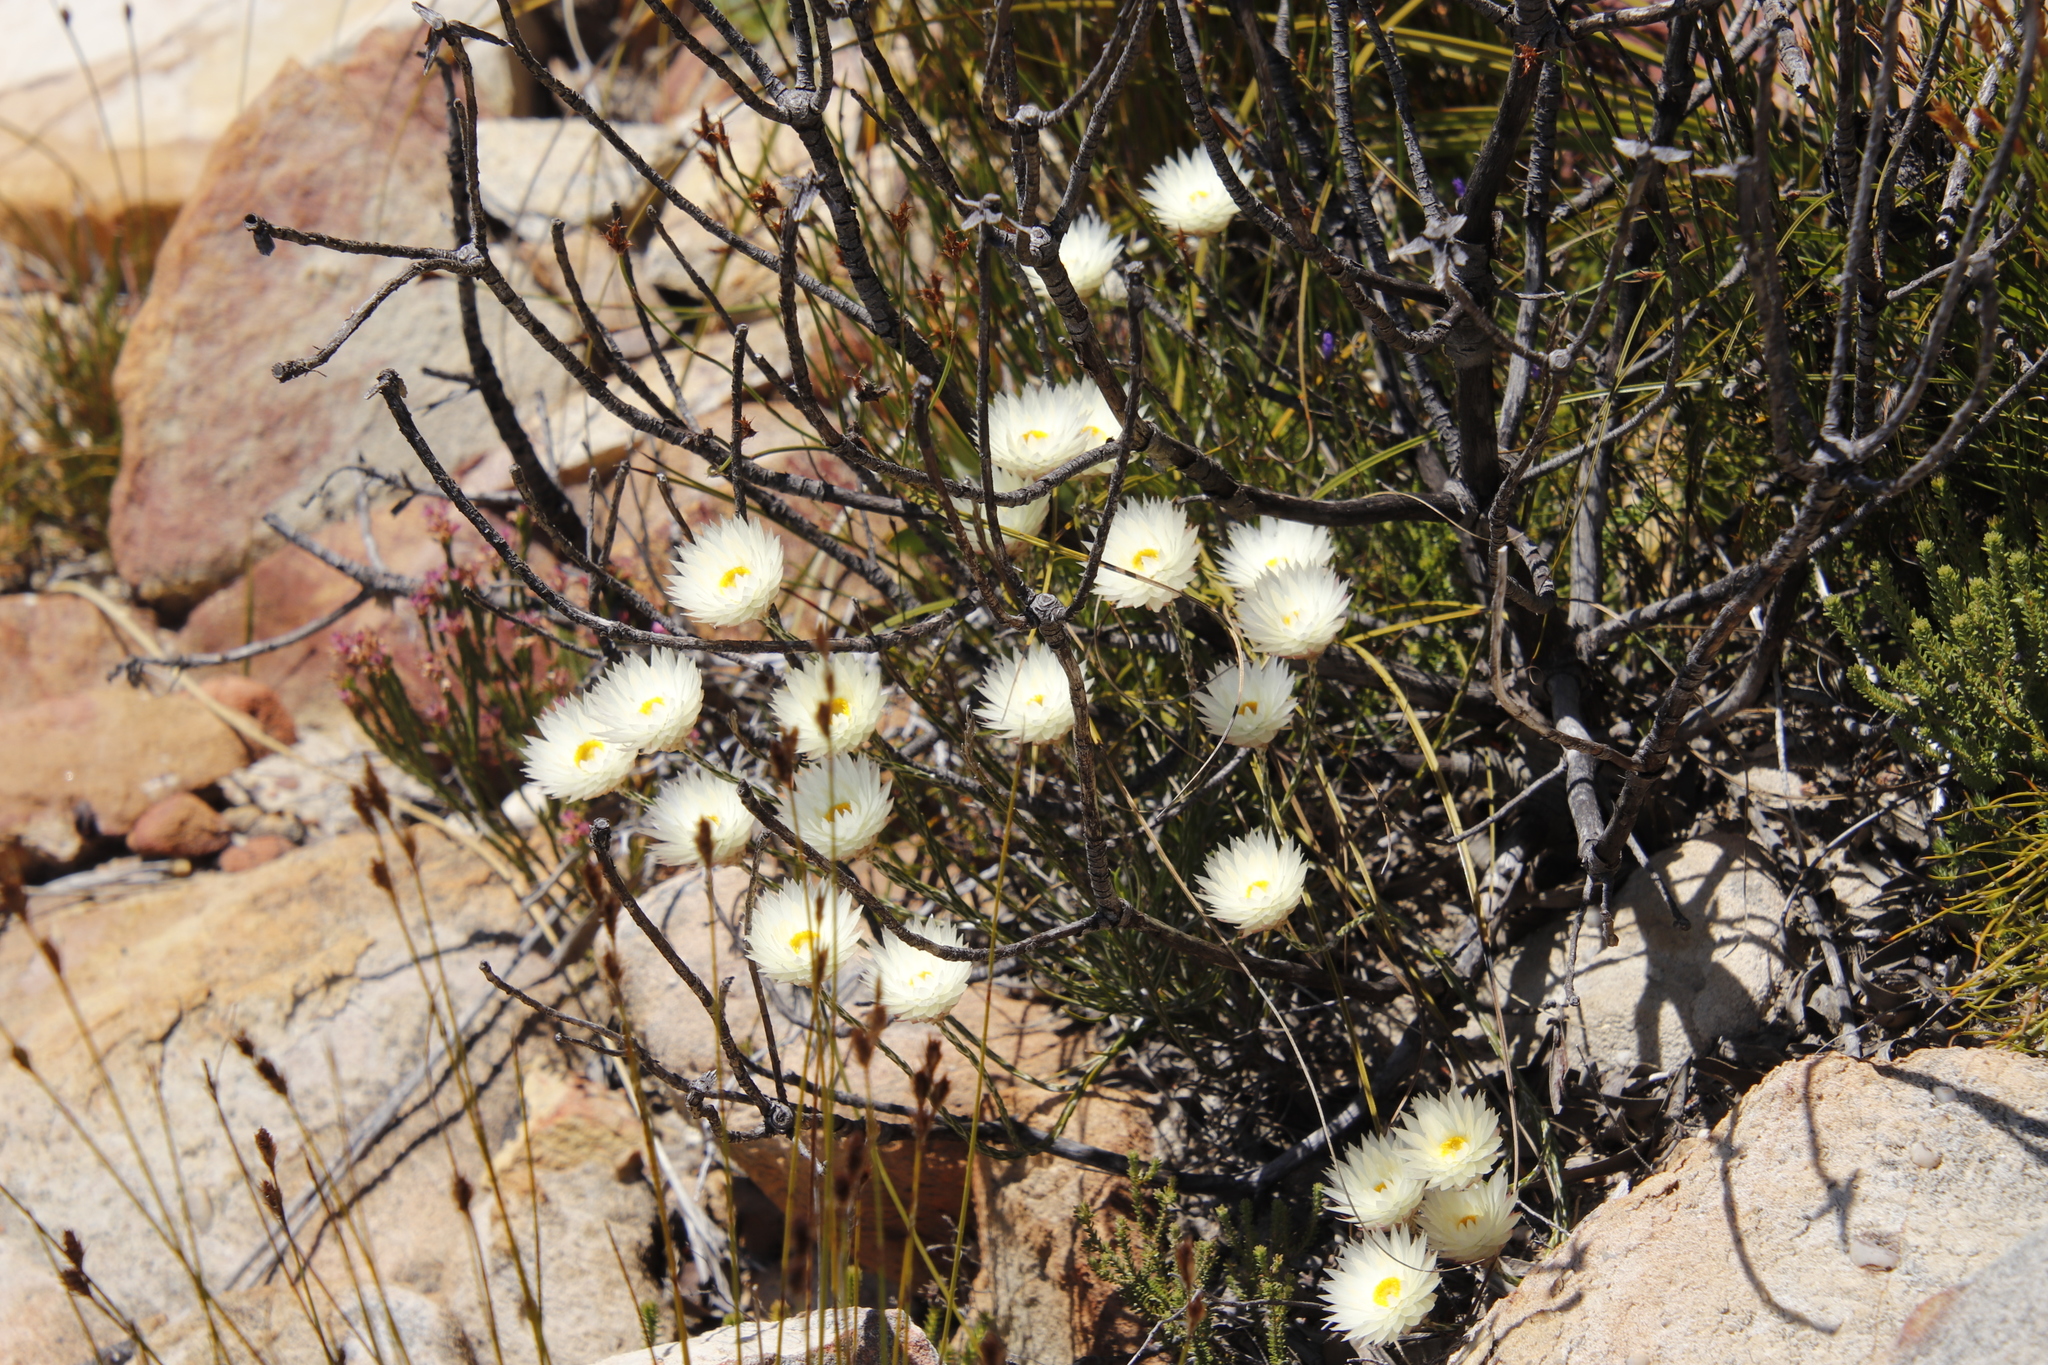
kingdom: Plantae
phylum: Tracheophyta
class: Magnoliopsida
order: Asterales
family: Asteraceae
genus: Edmondia
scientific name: Edmondia sesamoides
